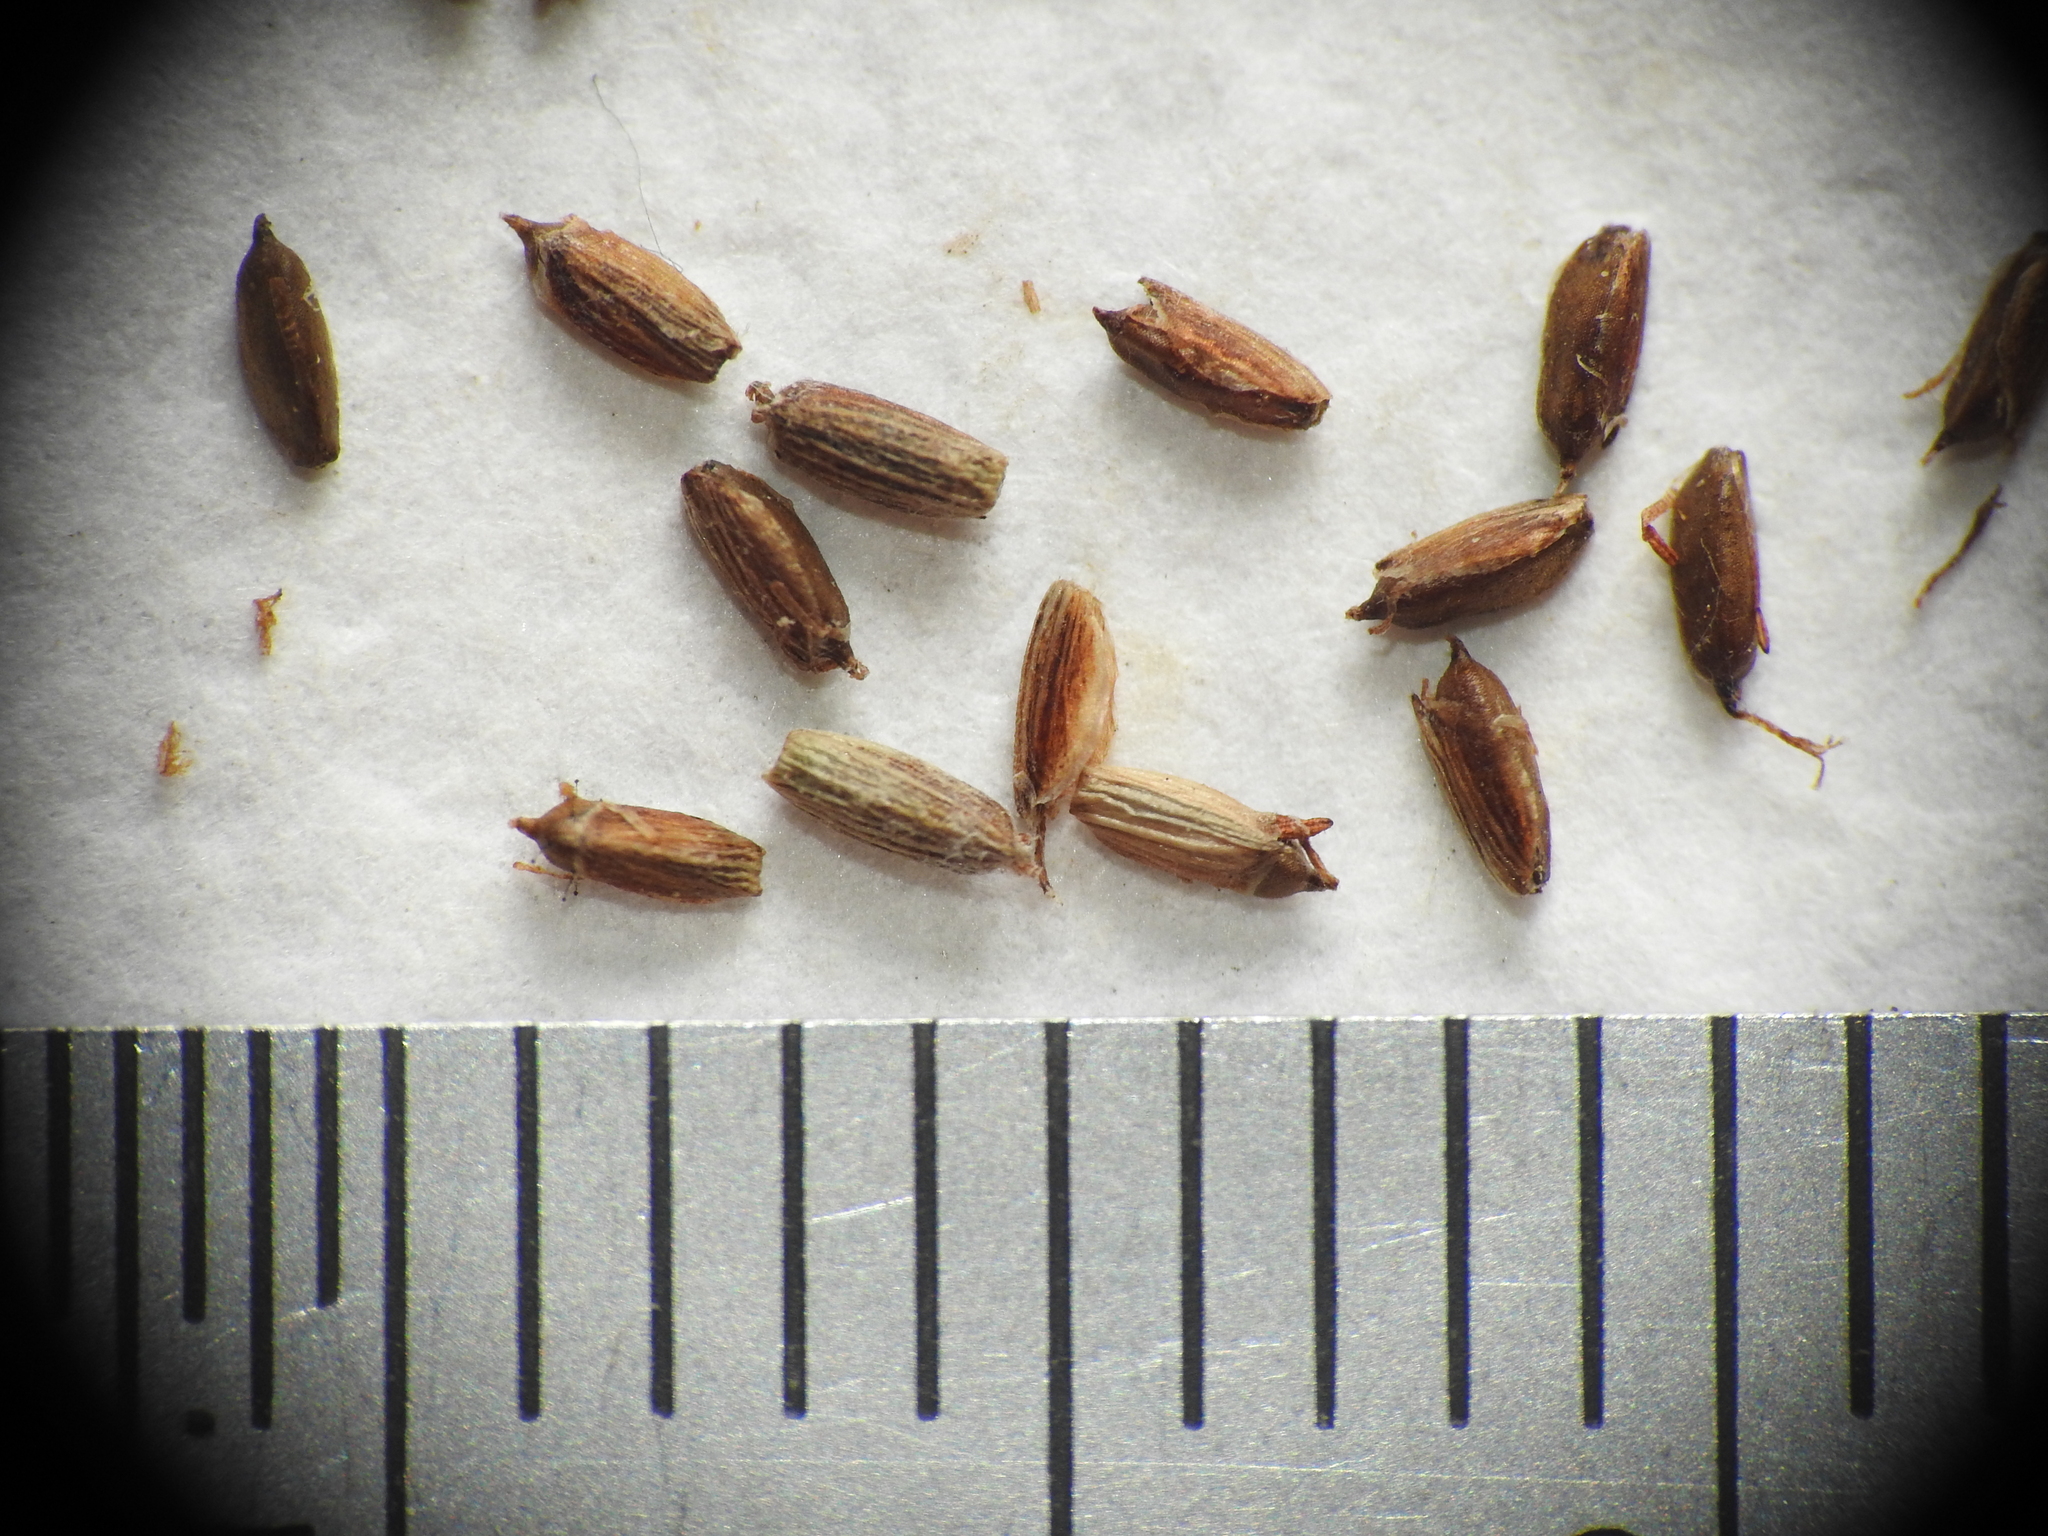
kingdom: Plantae
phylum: Tracheophyta
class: Liliopsida
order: Poales
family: Cyperaceae
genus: Cyperus
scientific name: Cyperus fulvus
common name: Sticky sedge
